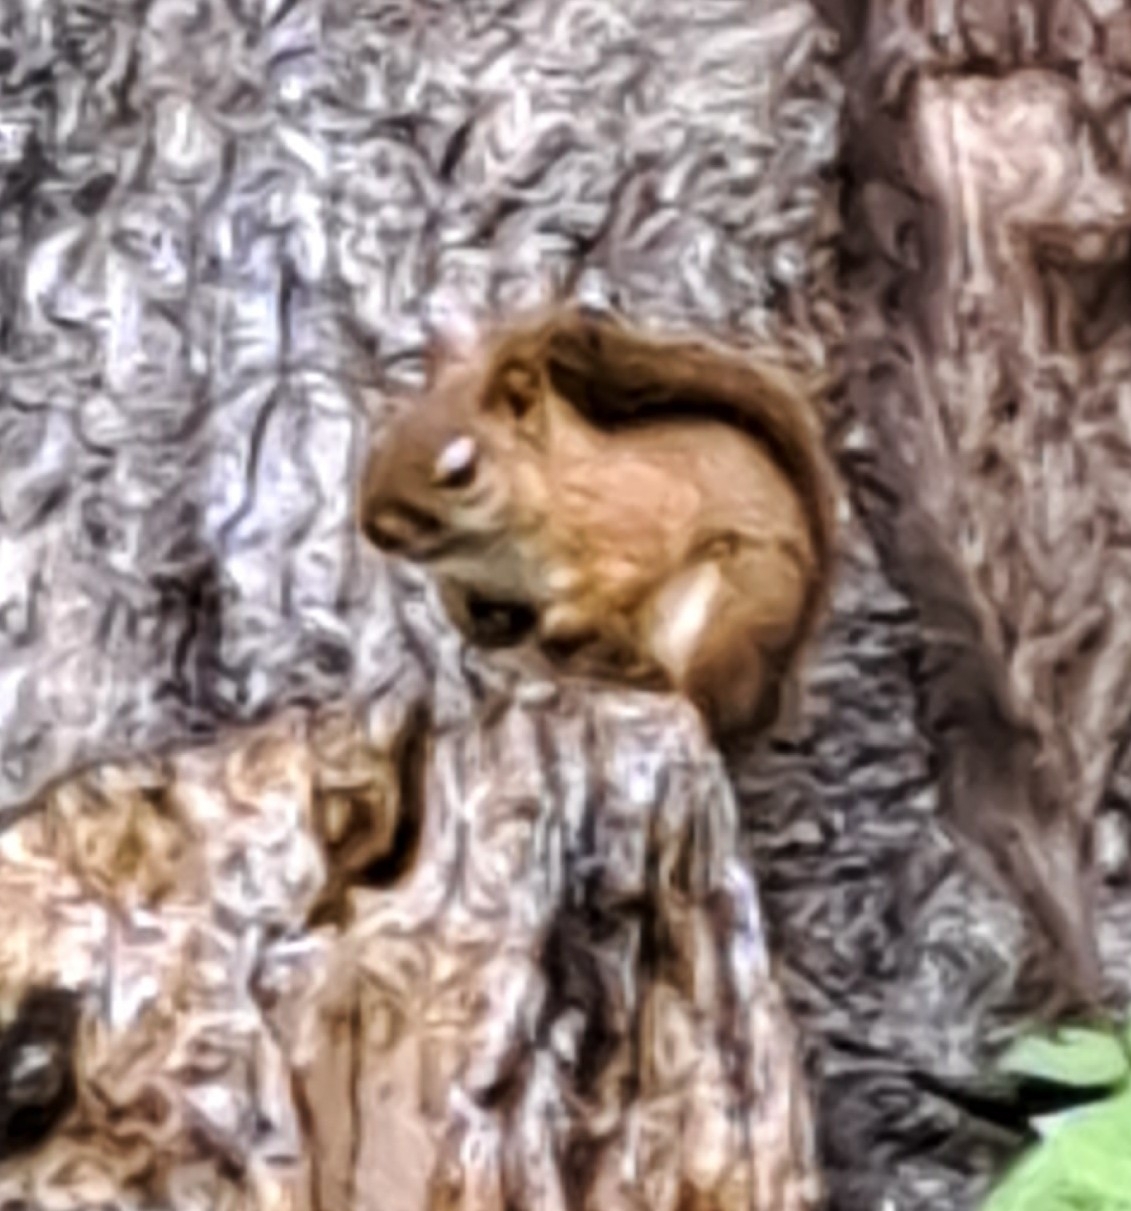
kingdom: Animalia
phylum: Chordata
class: Mammalia
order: Rodentia
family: Sciuridae
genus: Tamiasciurus
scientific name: Tamiasciurus hudsonicus
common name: Red squirrel
